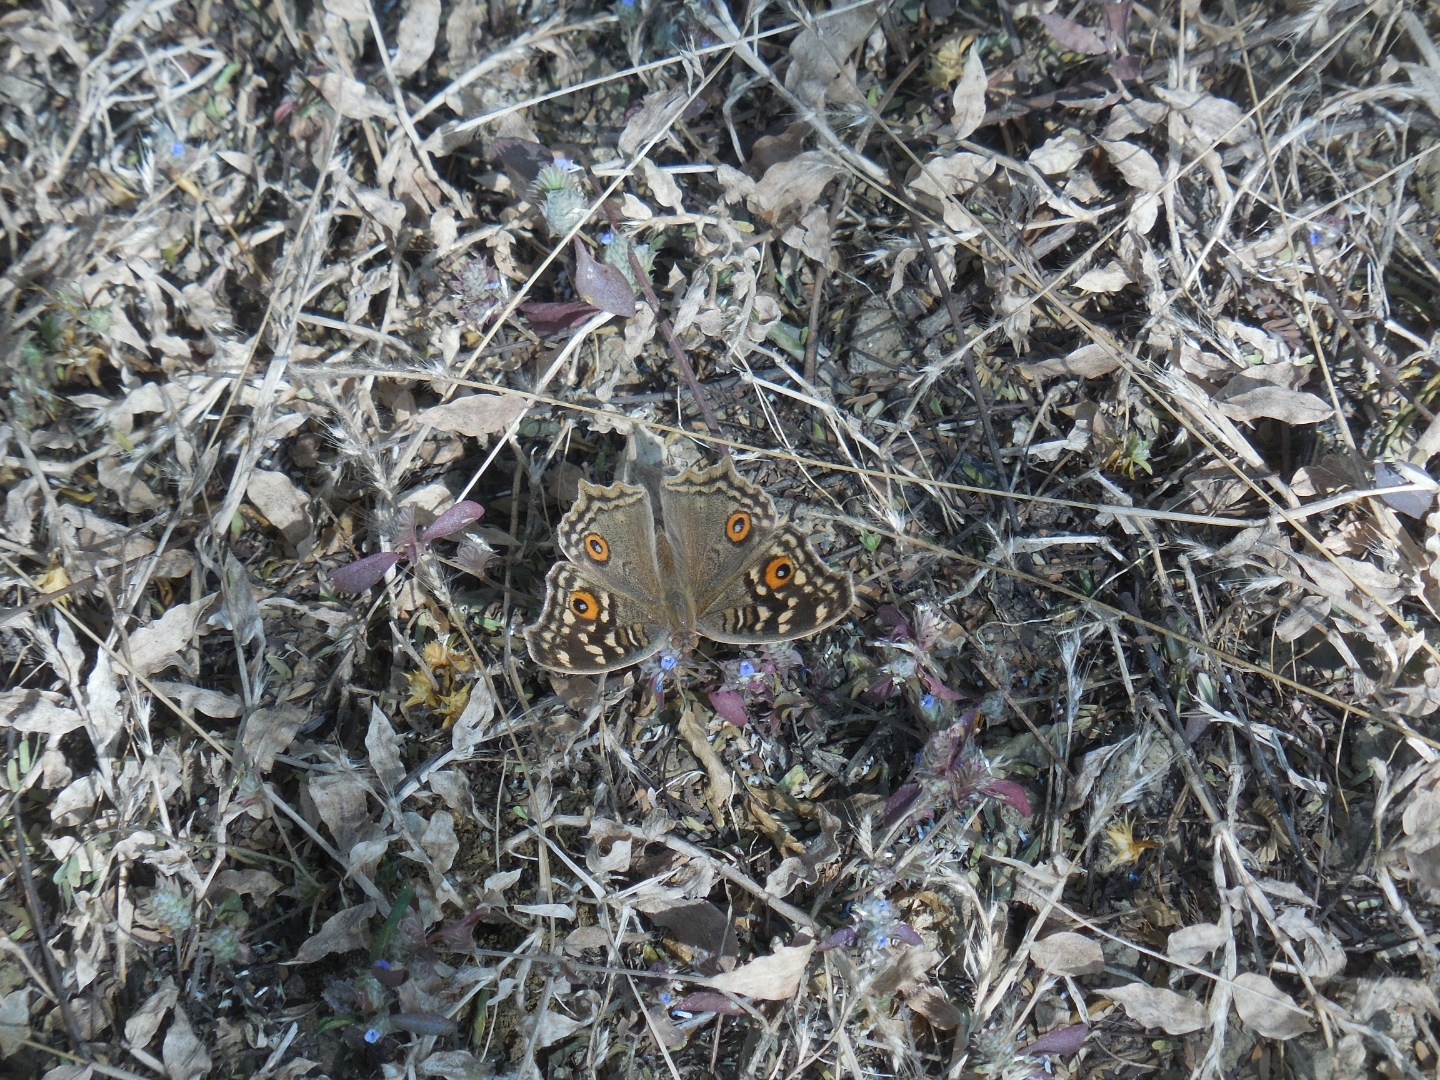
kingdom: Animalia
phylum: Arthropoda
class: Insecta
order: Lepidoptera
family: Nymphalidae
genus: Junonia
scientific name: Junonia lemonias
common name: Lemon pansy
